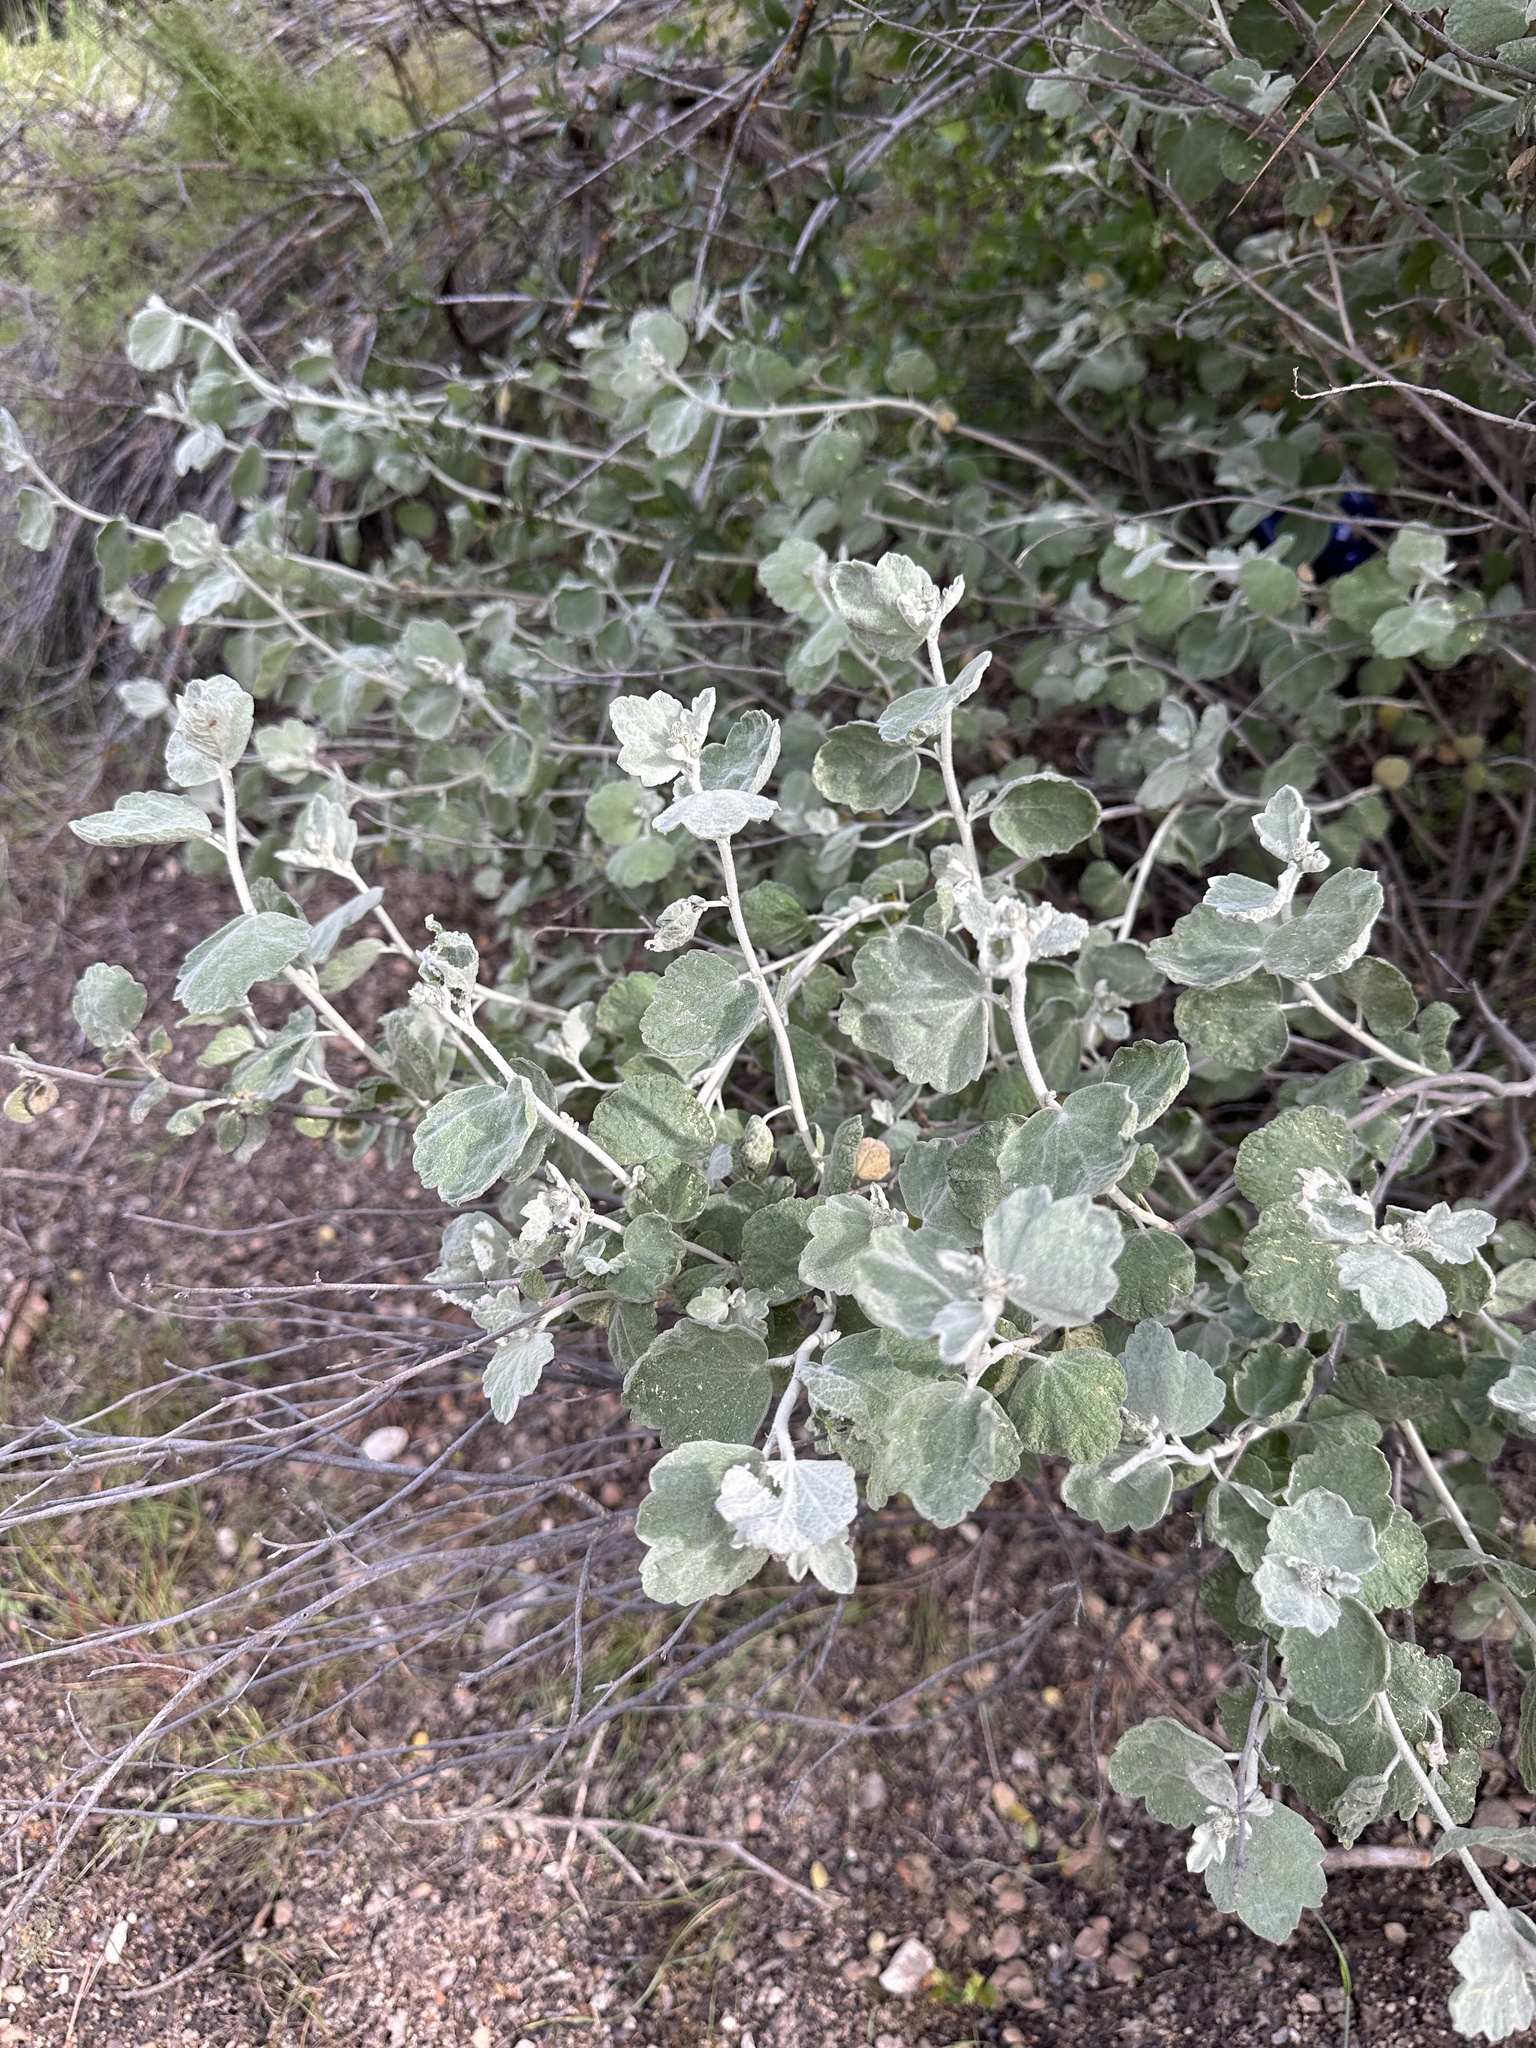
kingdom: Plantae
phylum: Tracheophyta
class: Magnoliopsida
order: Malvales
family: Malvaceae
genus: Malacothamnus
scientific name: Malacothamnus jonesii
